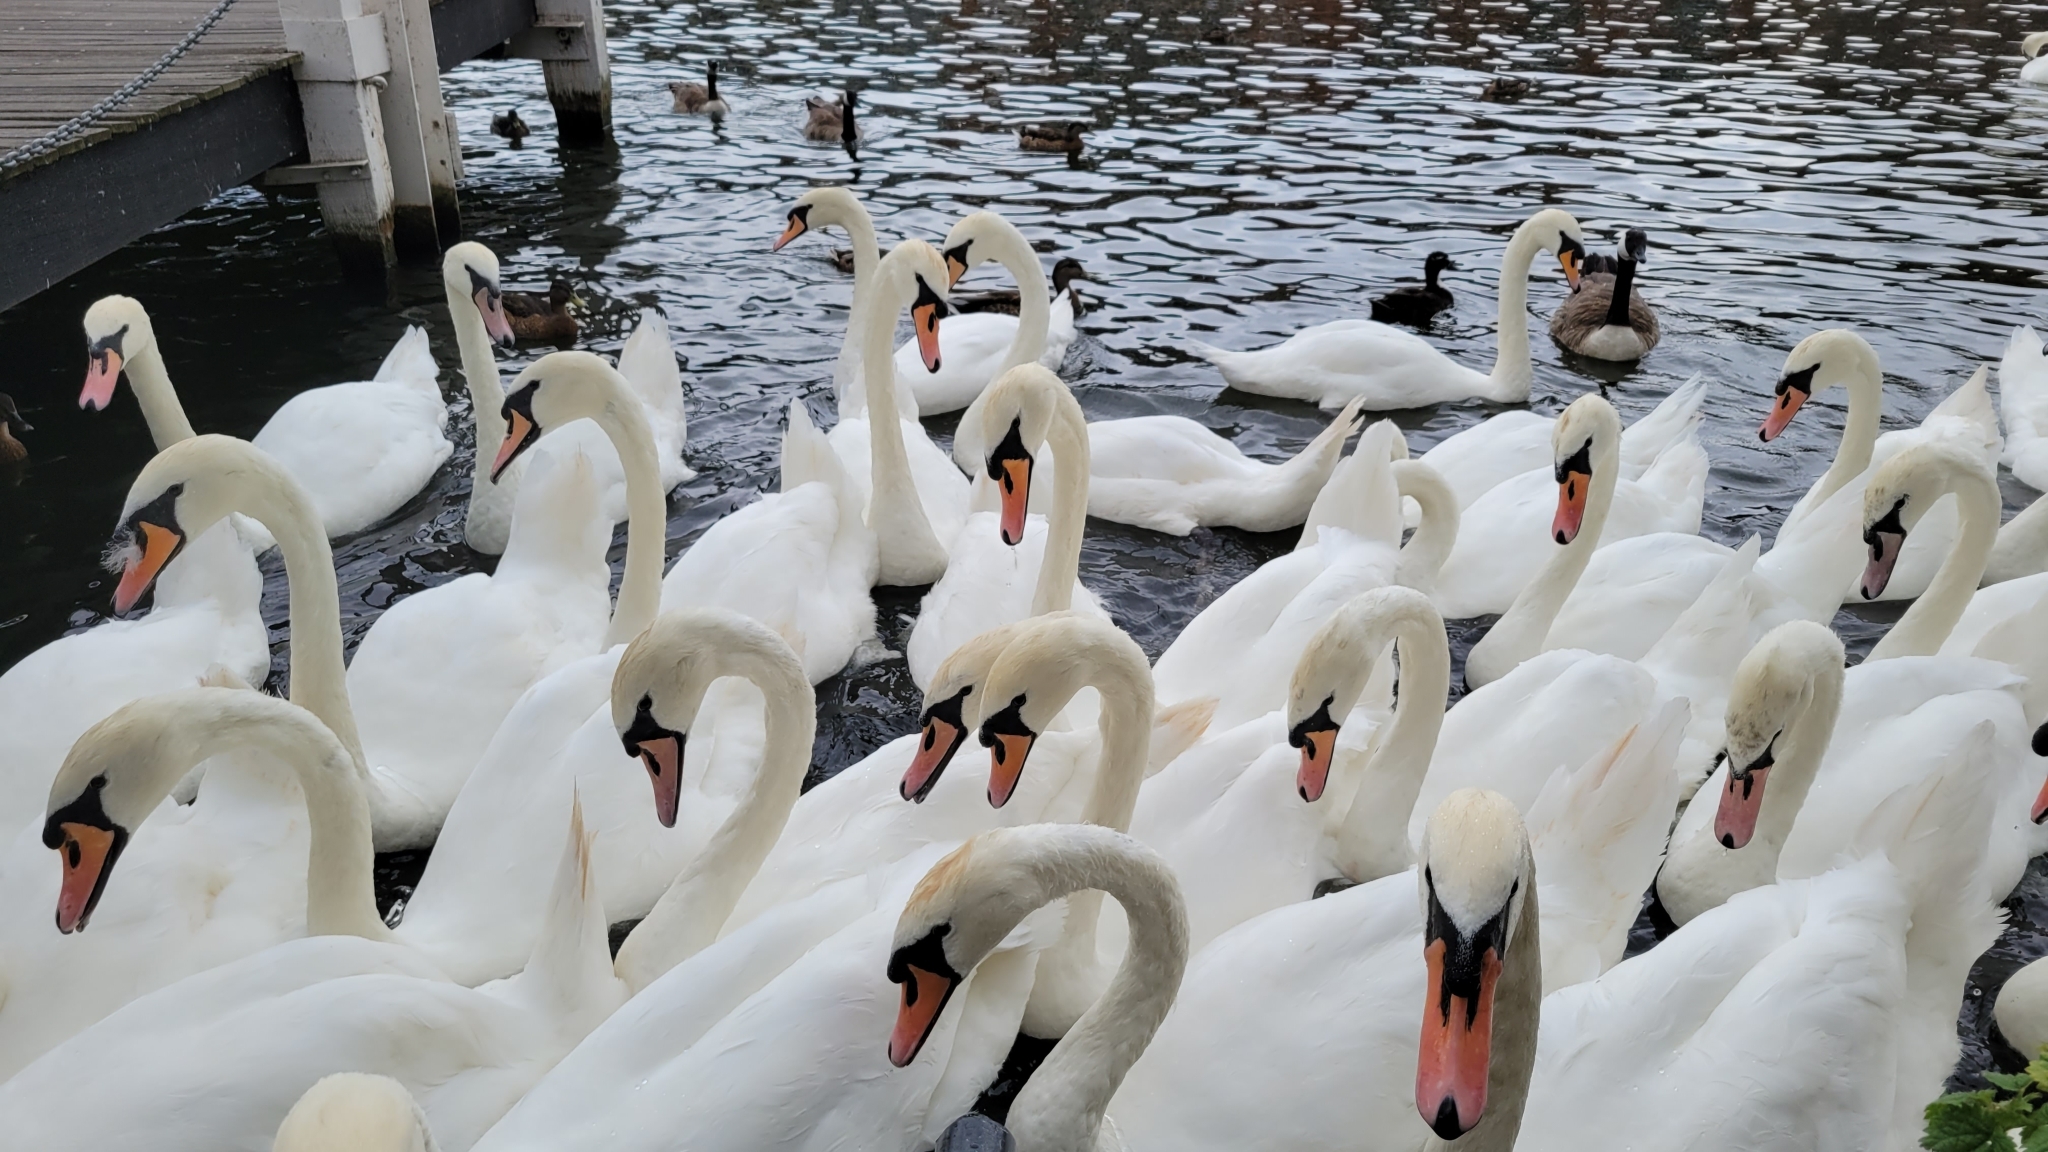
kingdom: Animalia
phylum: Chordata
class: Aves
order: Anseriformes
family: Anatidae
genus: Cygnus
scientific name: Cygnus olor
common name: Mute swan
